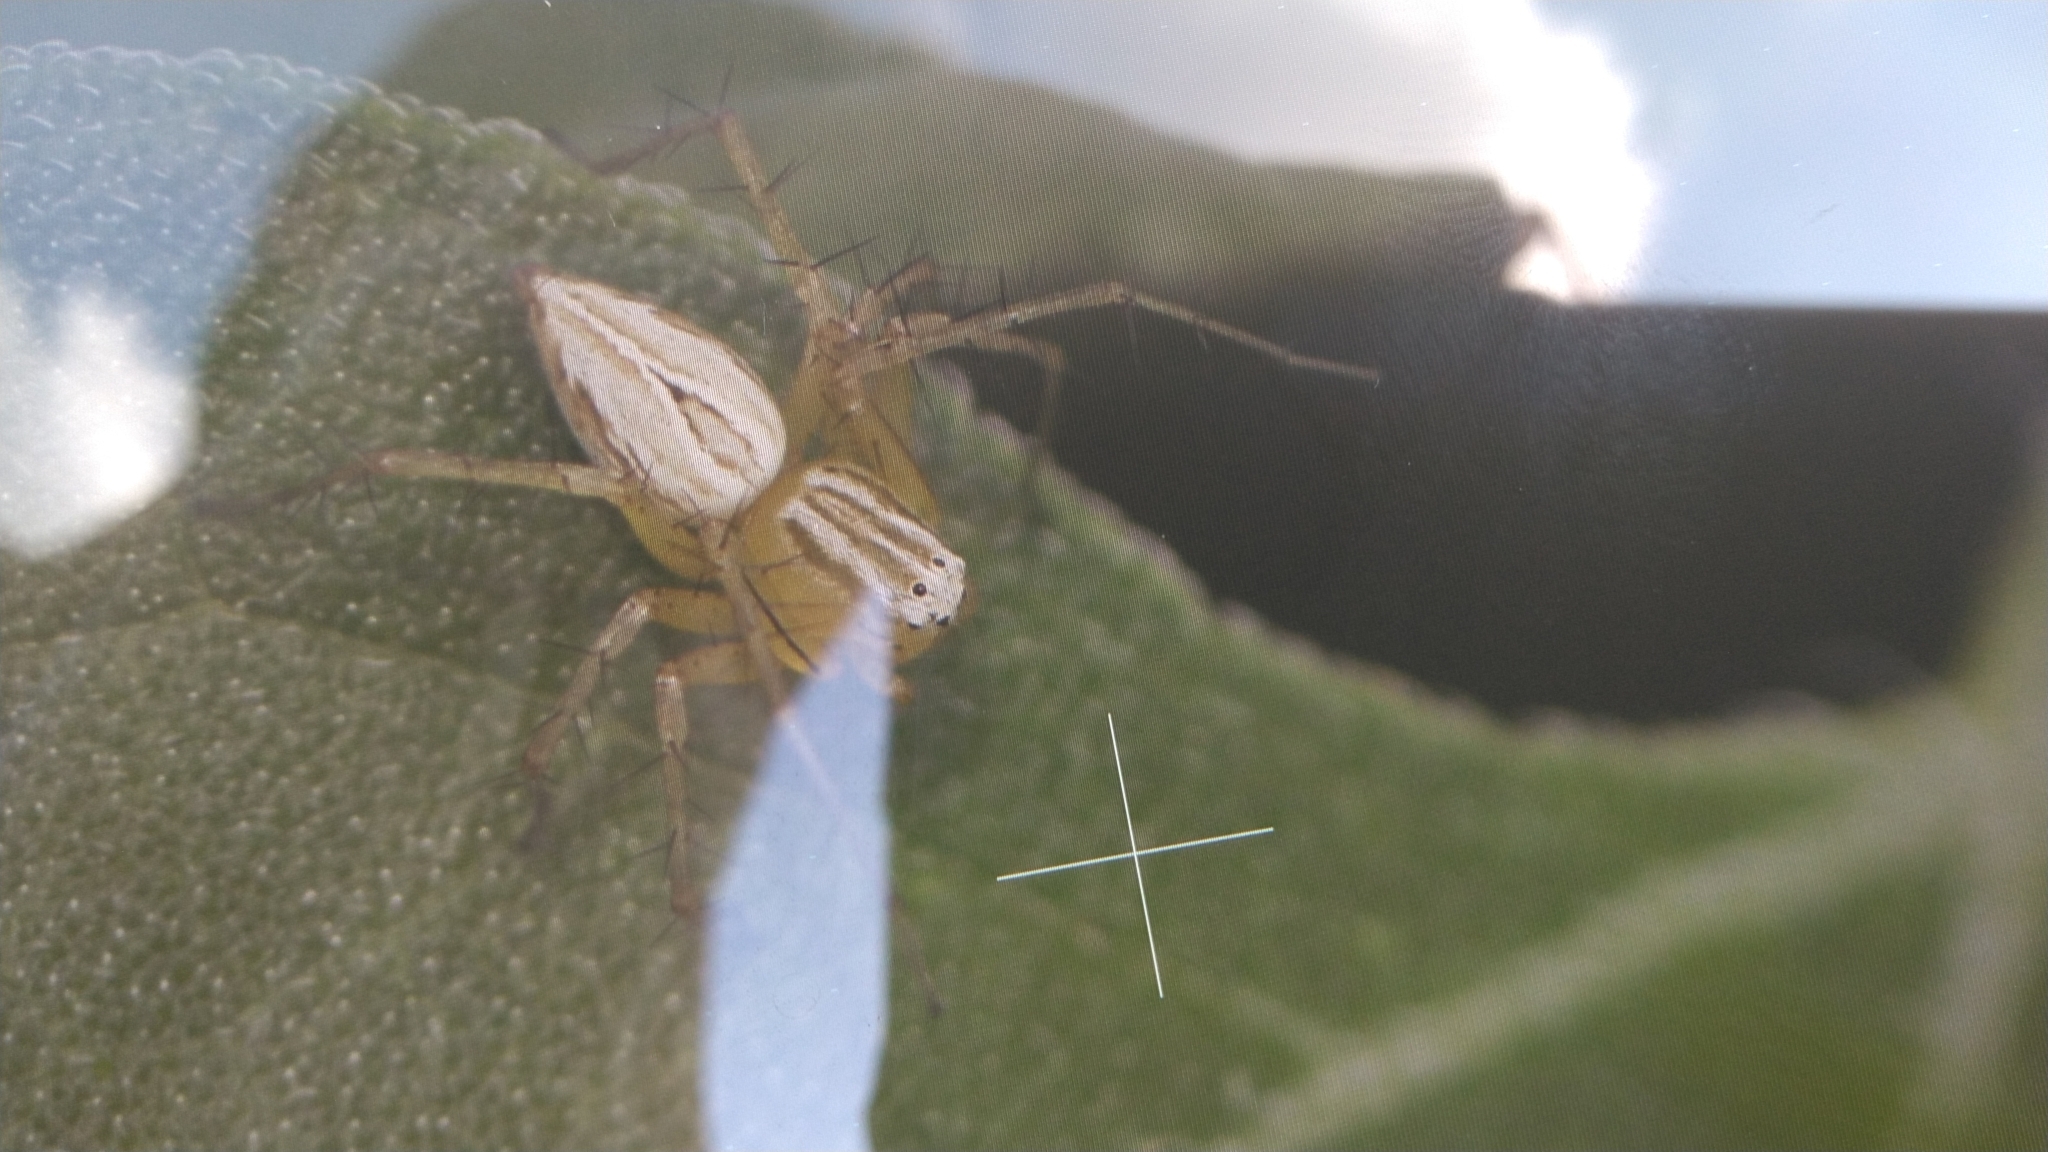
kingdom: Animalia
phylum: Arthropoda
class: Arachnida
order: Araneae
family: Oxyopidae
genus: Oxyopes
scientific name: Oxyopes salticus
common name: Lynx spiders
